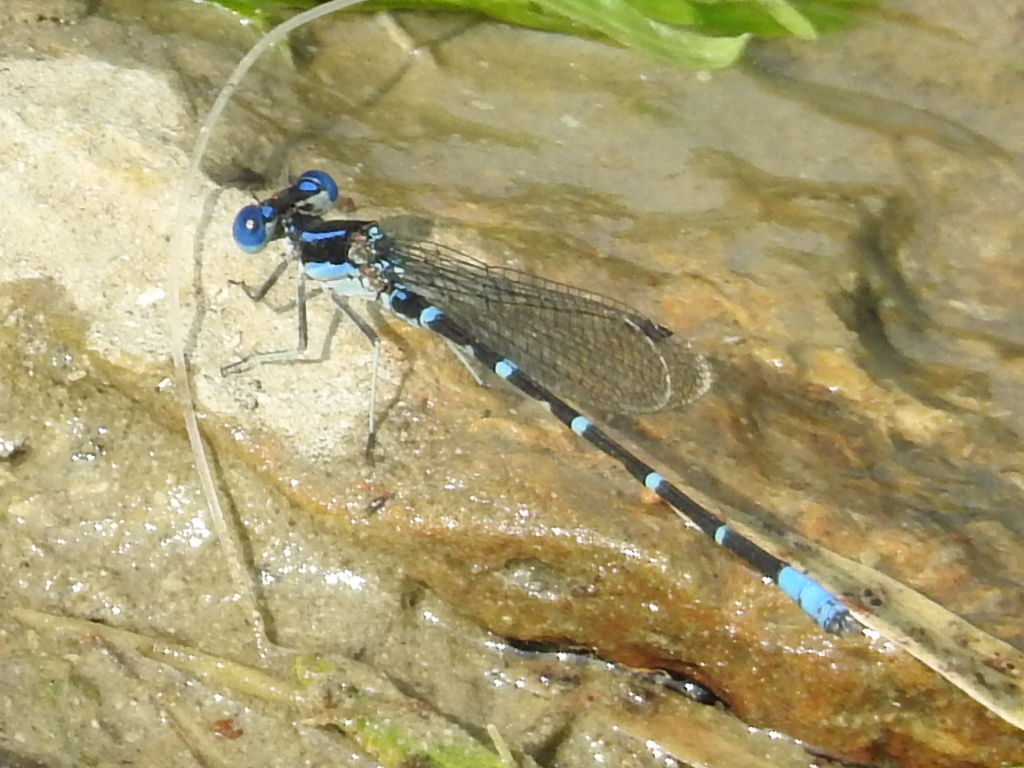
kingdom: Animalia
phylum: Arthropoda
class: Insecta
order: Odonata
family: Coenagrionidae
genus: Argia
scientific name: Argia sedula
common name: Blue-ringed dancer
